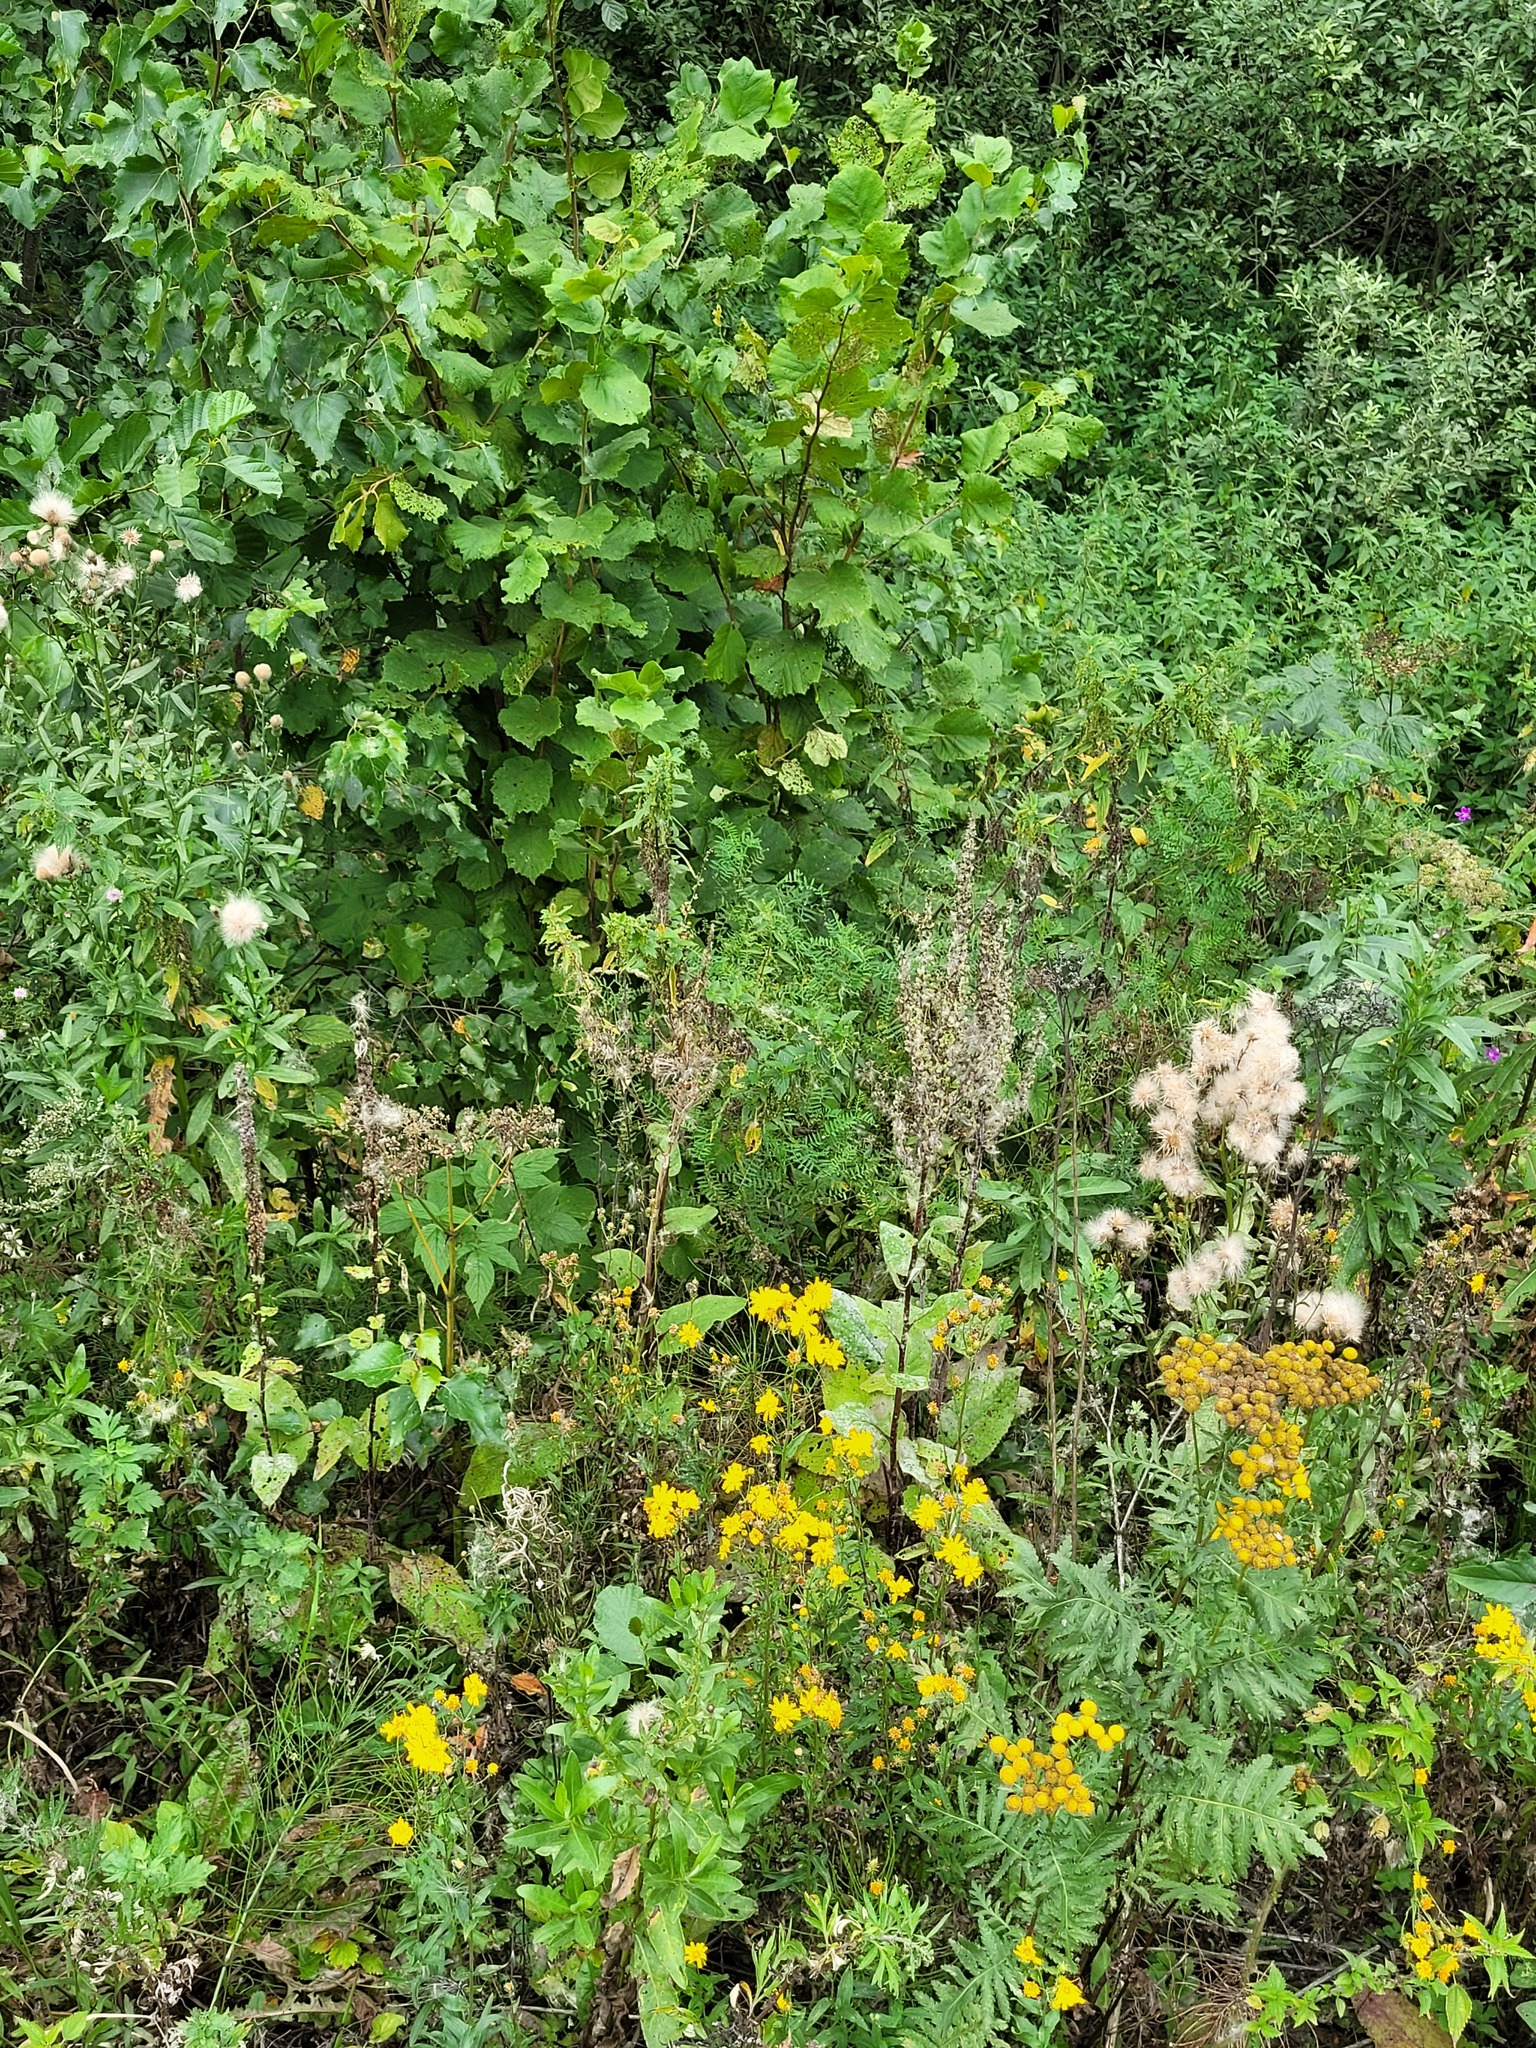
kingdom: Plantae
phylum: Tracheophyta
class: Magnoliopsida
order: Lamiales
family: Scrophulariaceae
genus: Verbascum
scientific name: Verbascum nigrum
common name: Dark mullein
